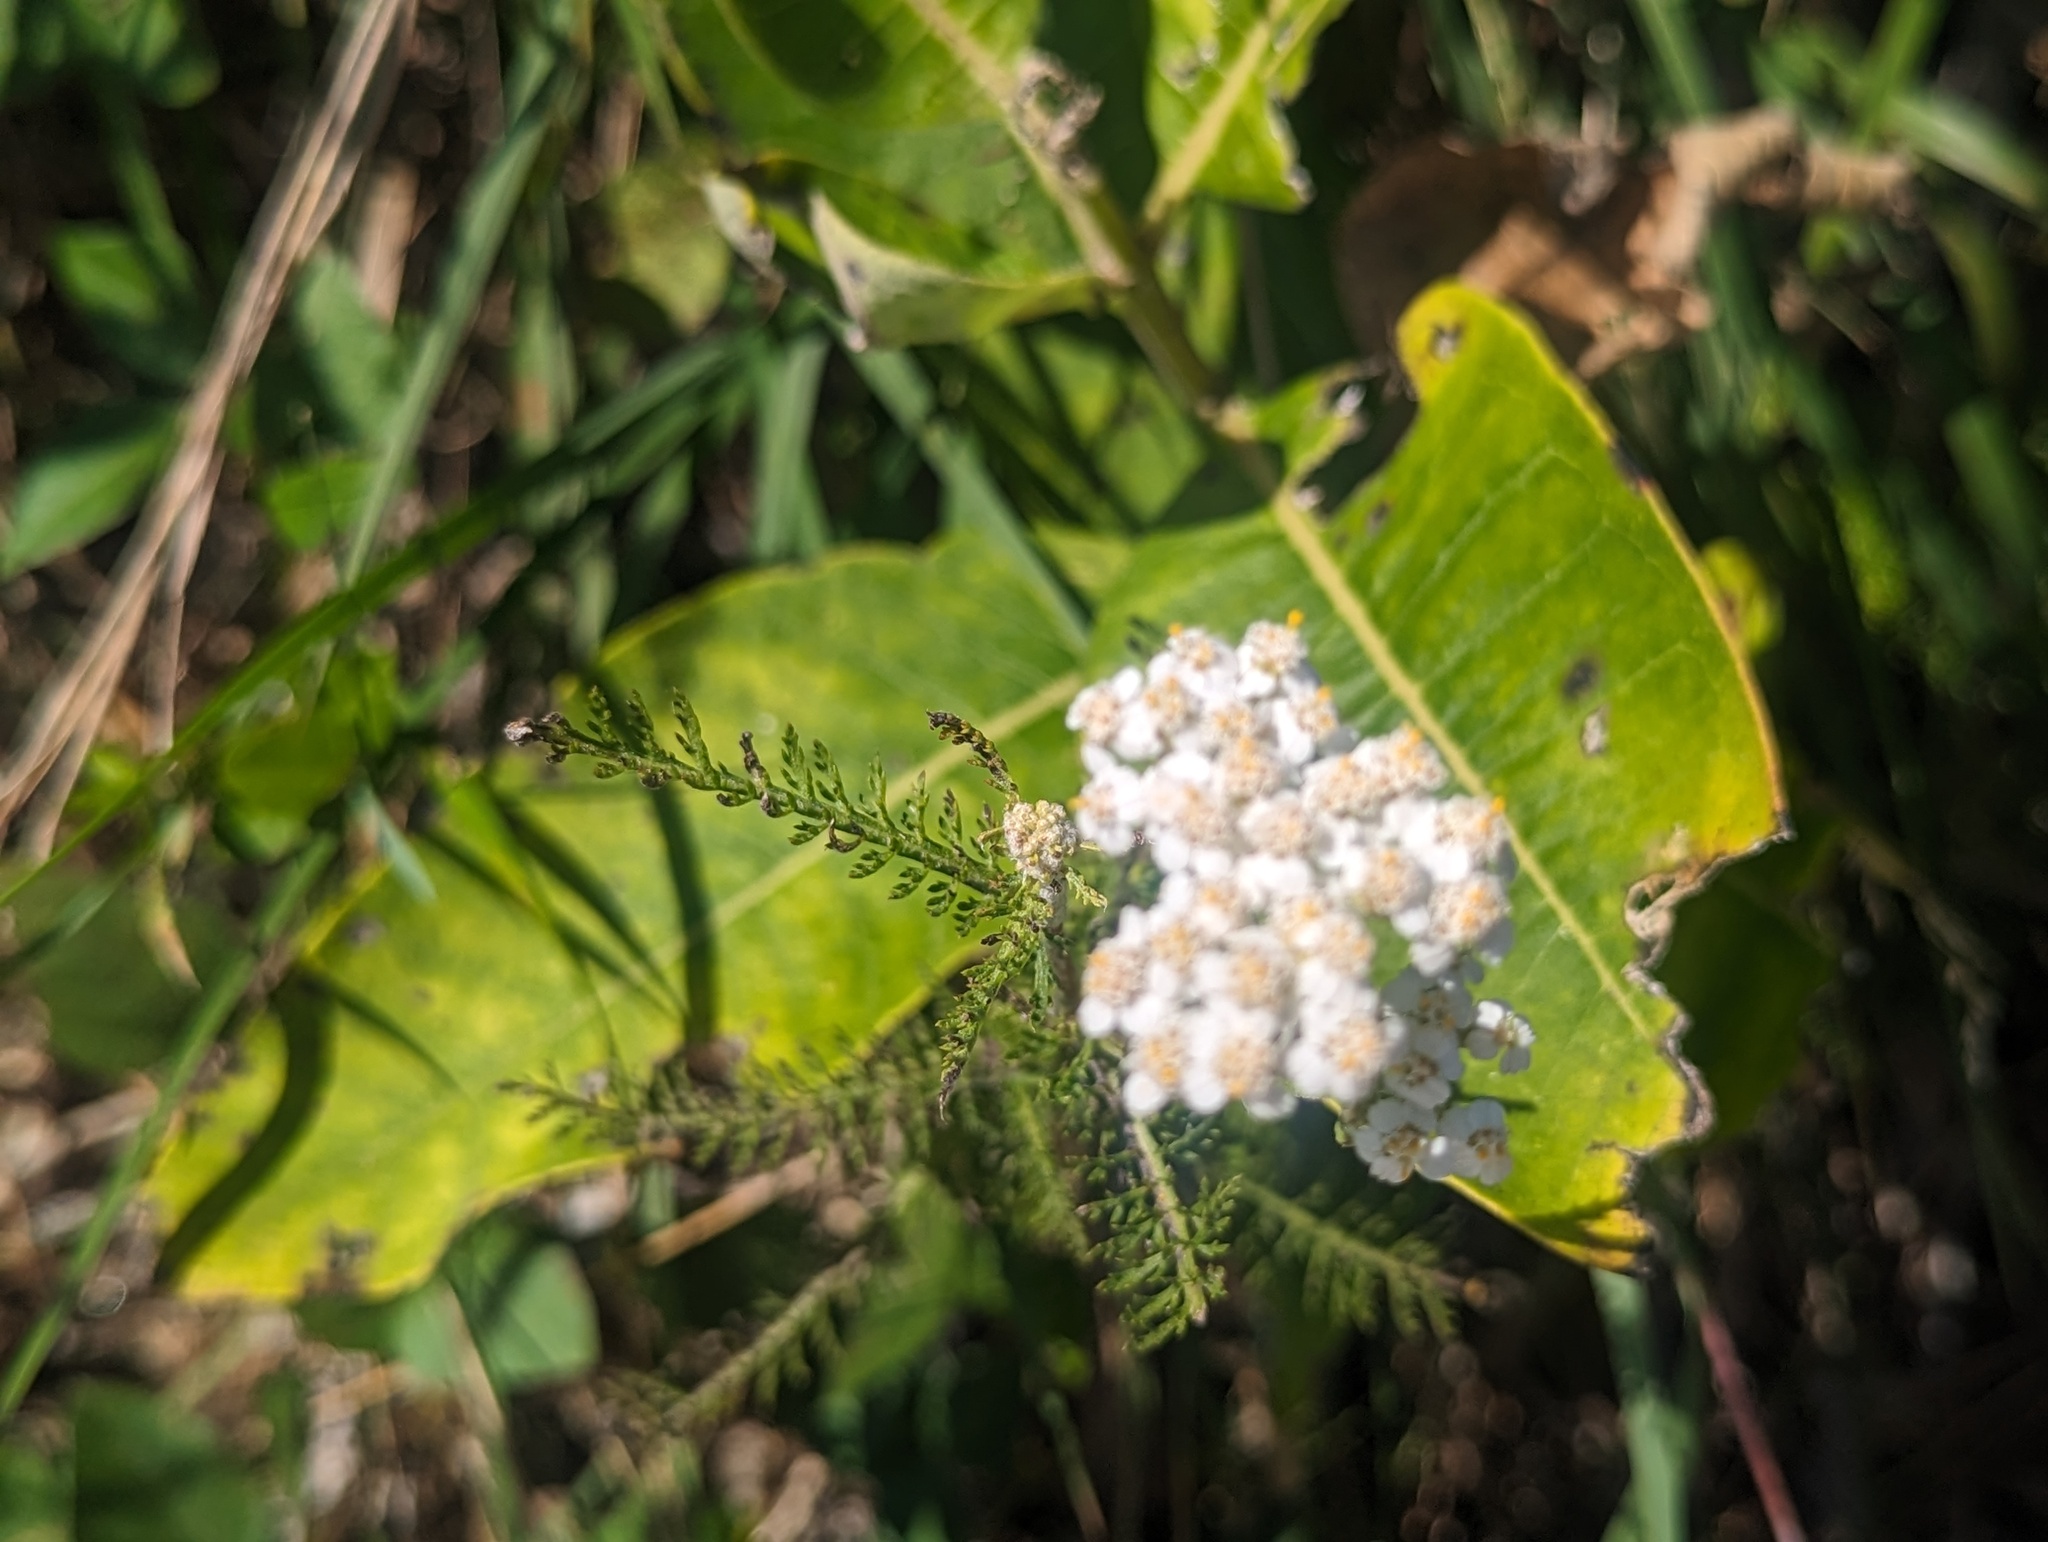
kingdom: Plantae
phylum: Tracheophyta
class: Magnoliopsida
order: Asterales
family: Asteraceae
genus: Achillea
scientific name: Achillea millefolium
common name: Yarrow
